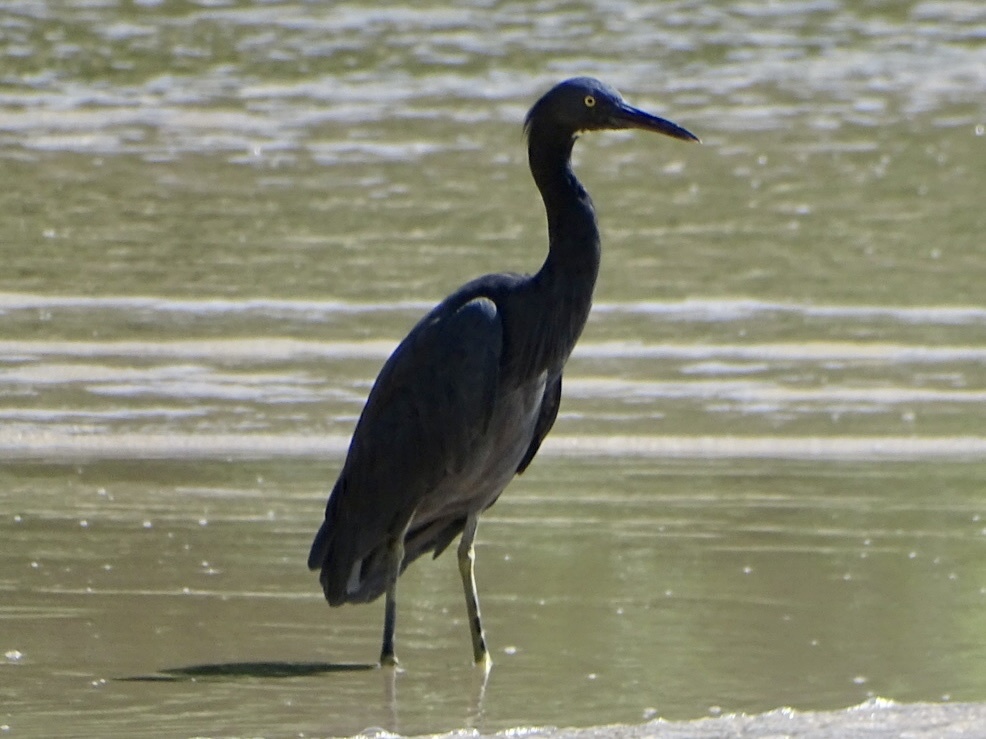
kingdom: Animalia
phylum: Chordata
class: Aves
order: Pelecaniformes
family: Ardeidae
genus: Egretta
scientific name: Egretta sacra
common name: Pacific reef heron
